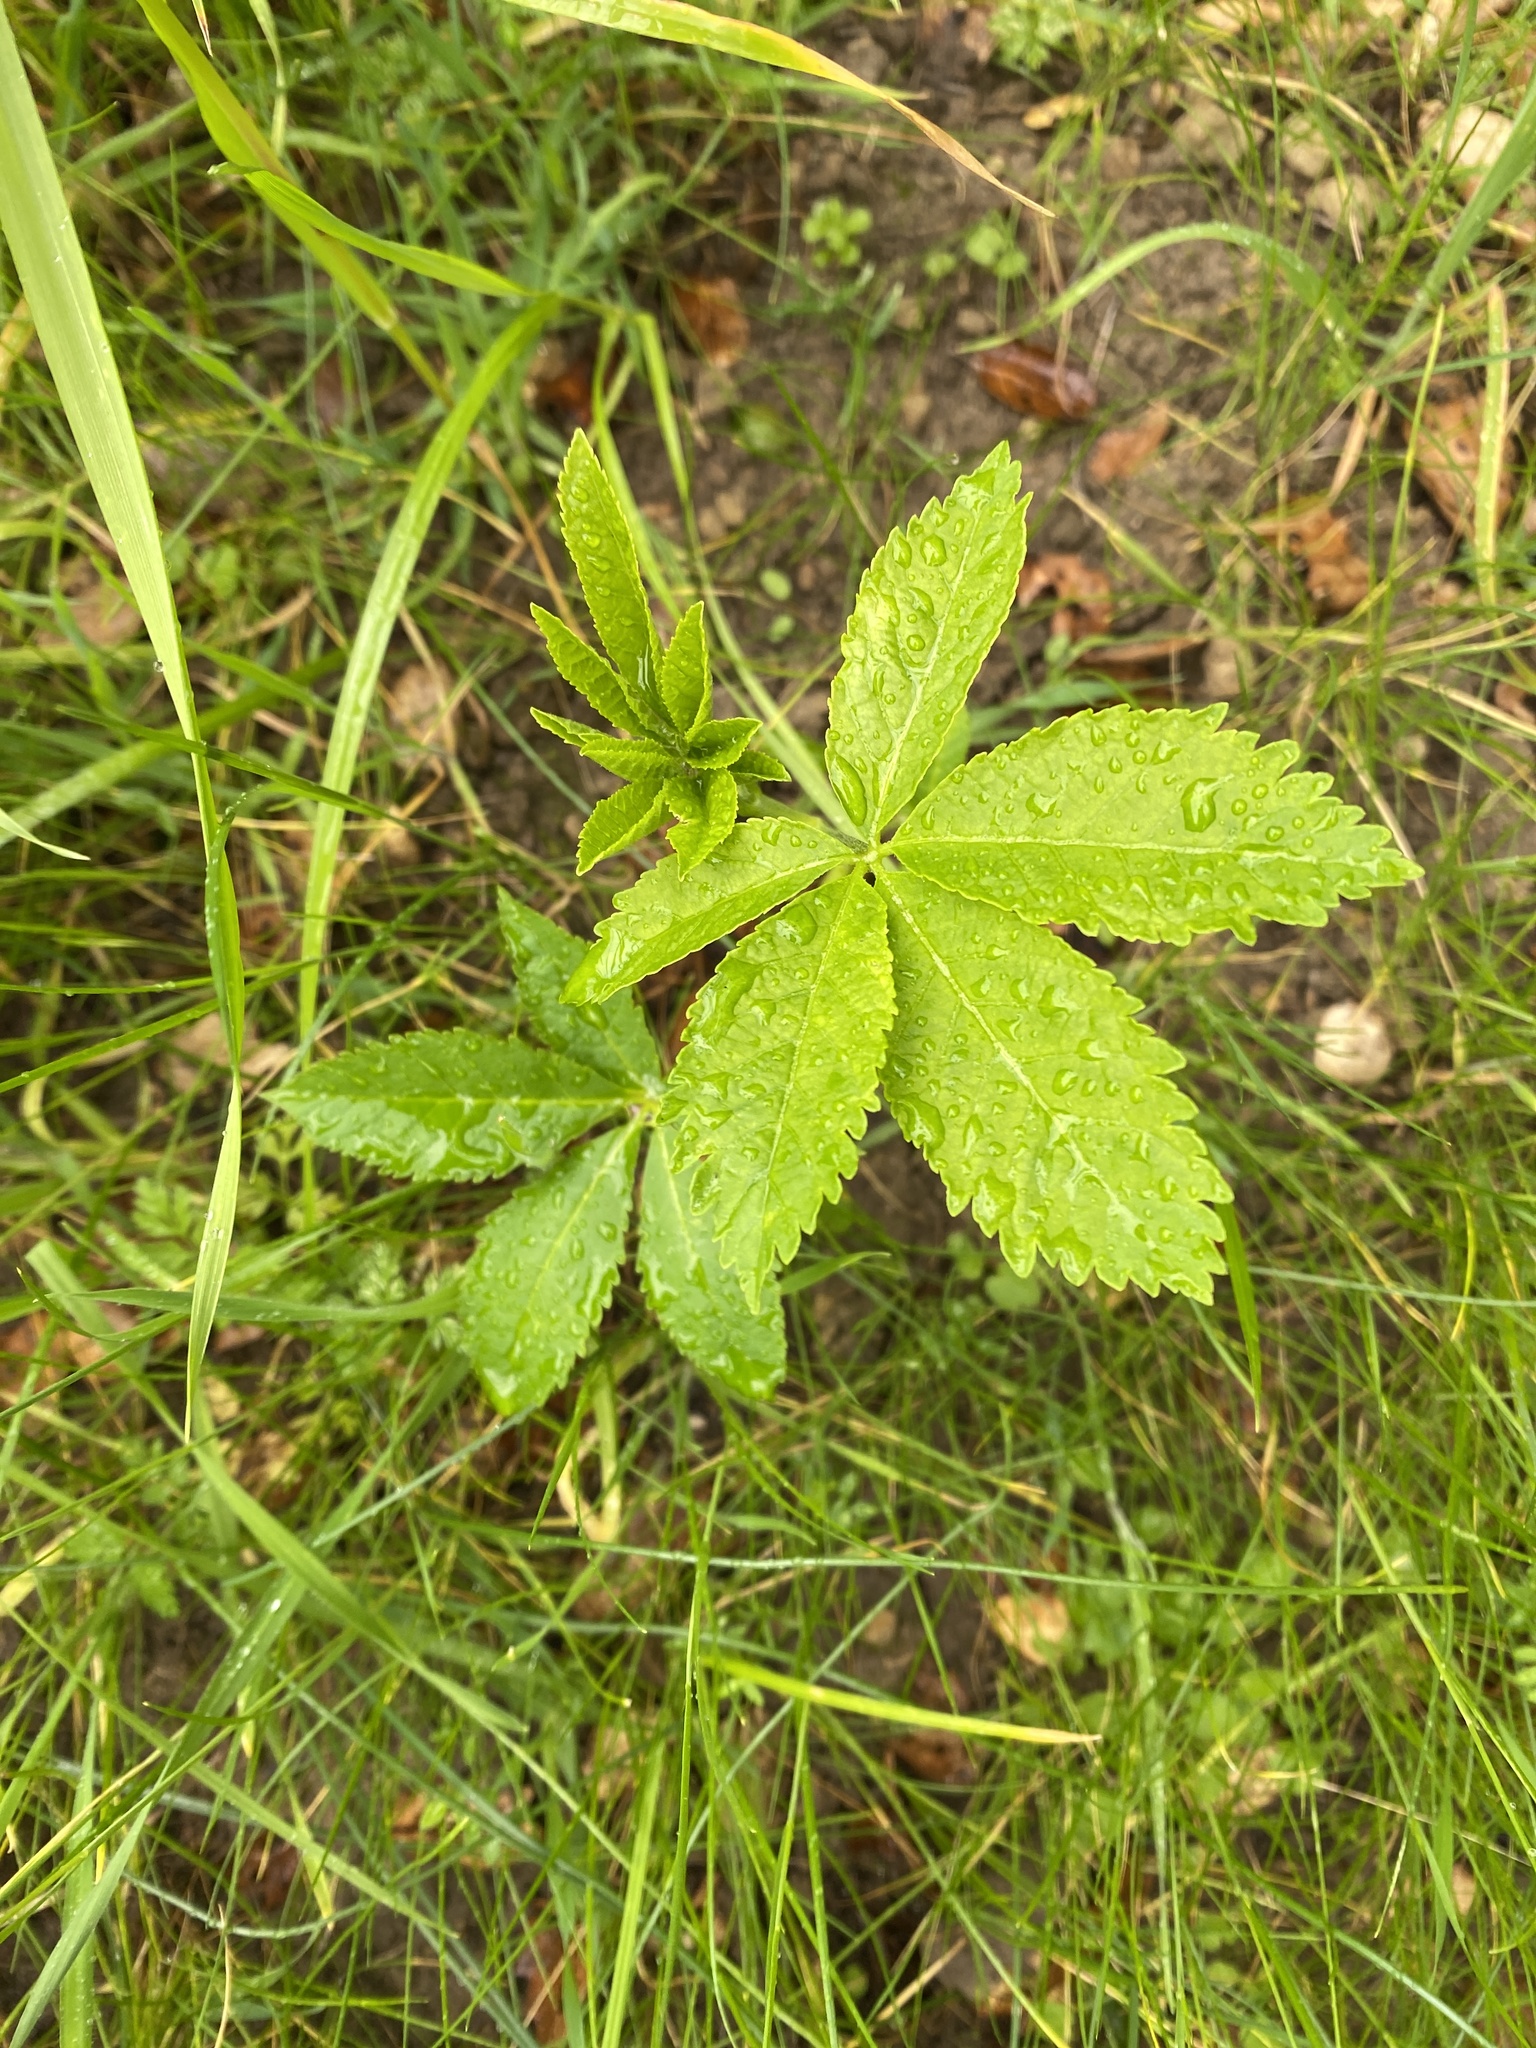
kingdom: Plantae
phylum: Tracheophyta
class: Magnoliopsida
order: Sapindales
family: Sapindaceae
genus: Aesculus
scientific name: Aesculus californica
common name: California buckeye
